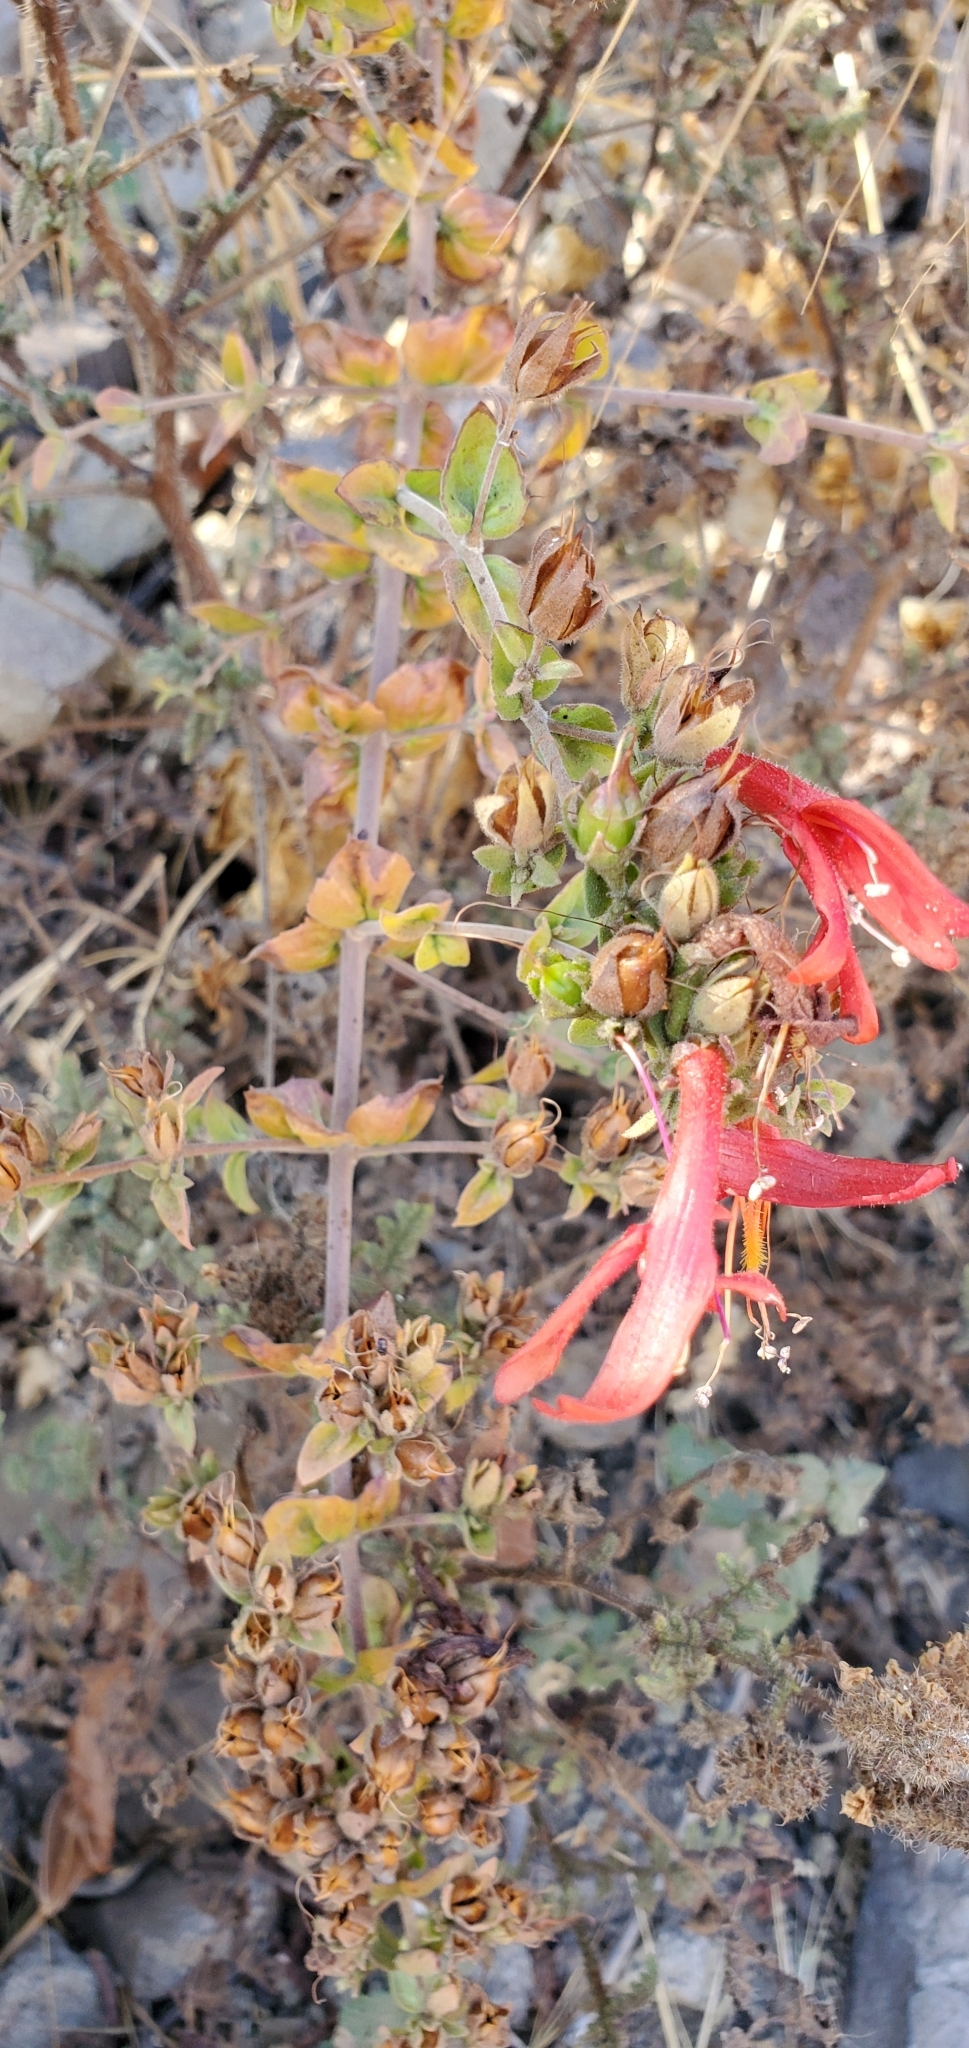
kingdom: Plantae
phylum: Tracheophyta
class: Magnoliopsida
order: Lamiales
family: Plantaginaceae
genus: Keckiella
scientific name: Keckiella cordifolia
